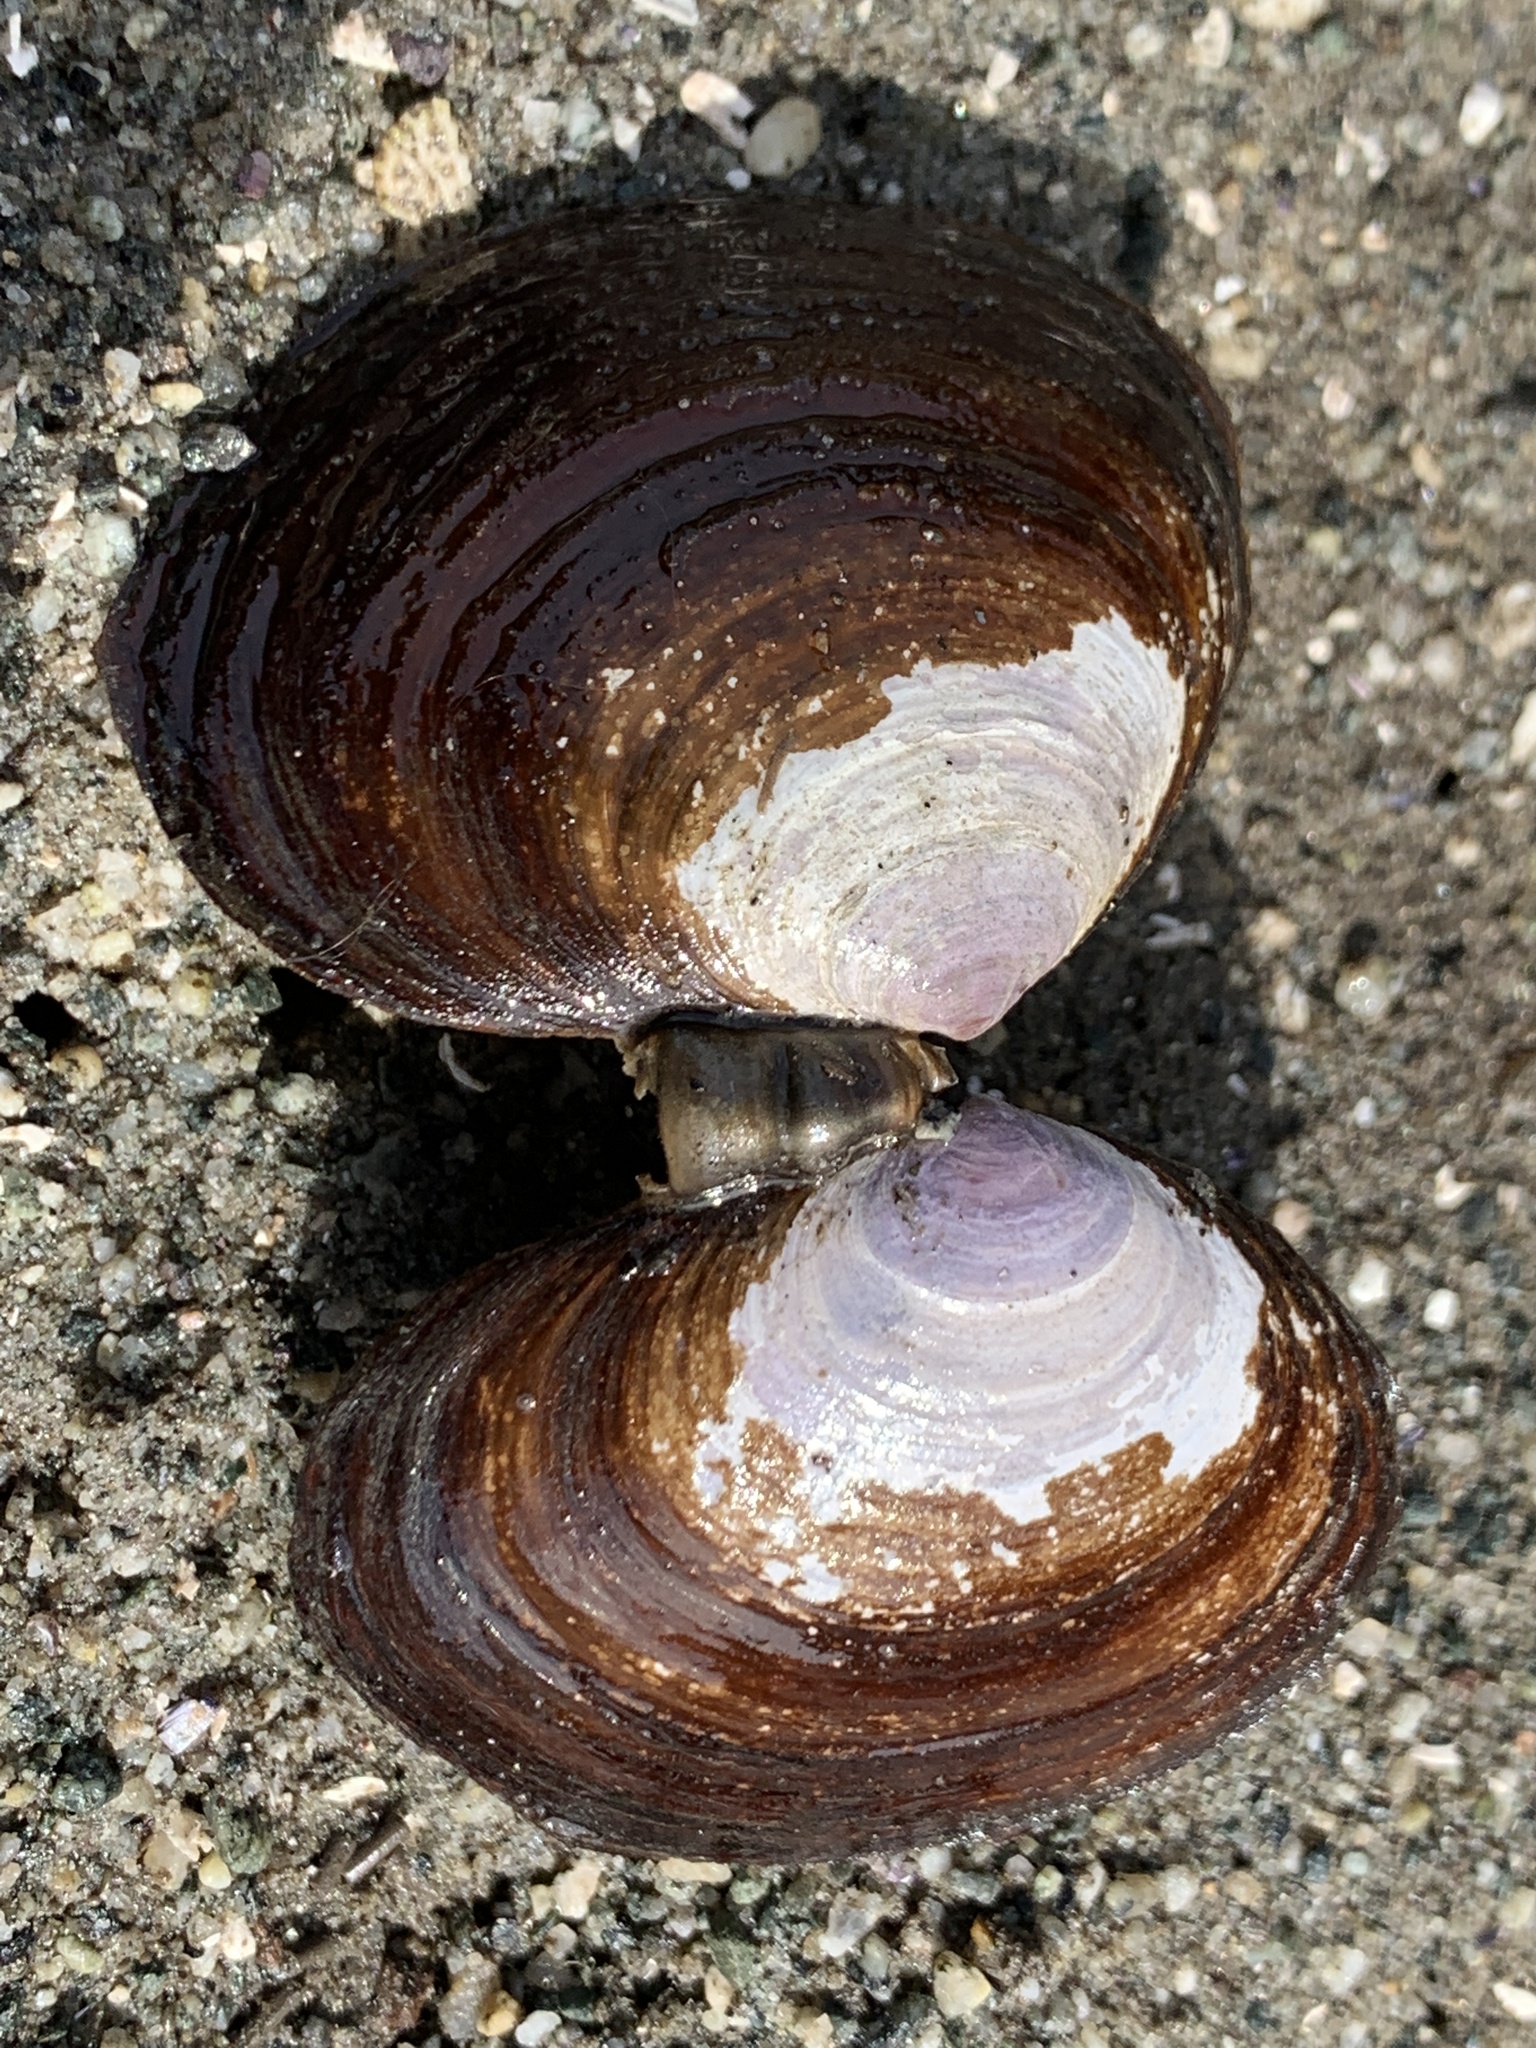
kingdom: Animalia
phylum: Mollusca
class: Bivalvia
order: Cardiida
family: Psammobiidae
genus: Nuttallia
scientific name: Nuttallia obscurata
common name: Purple mahogany-clam
